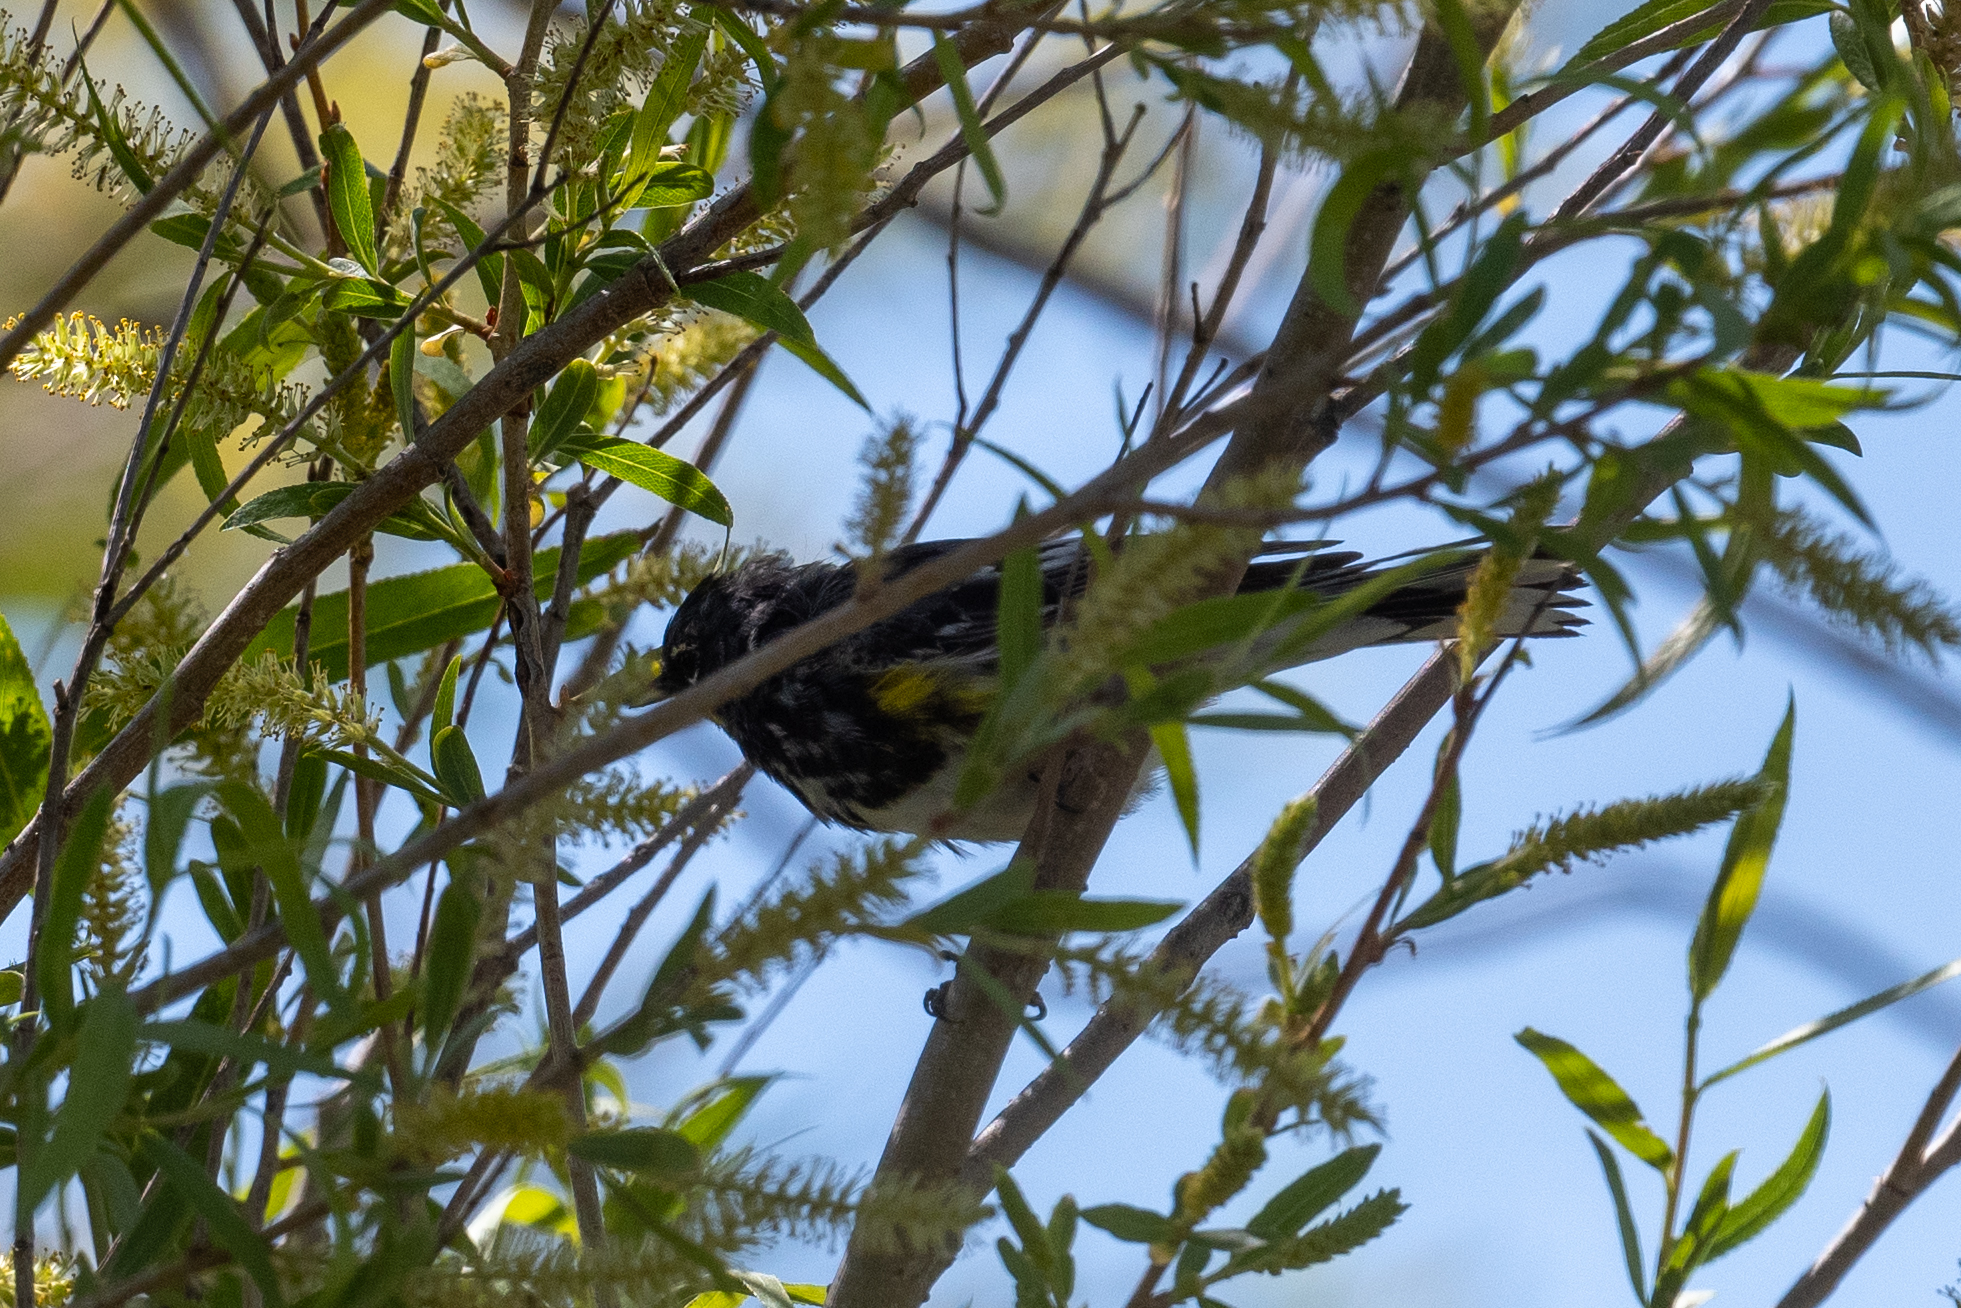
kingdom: Animalia
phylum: Chordata
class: Aves
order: Passeriformes
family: Parulidae
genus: Setophaga
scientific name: Setophaga coronata
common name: Myrtle warbler
